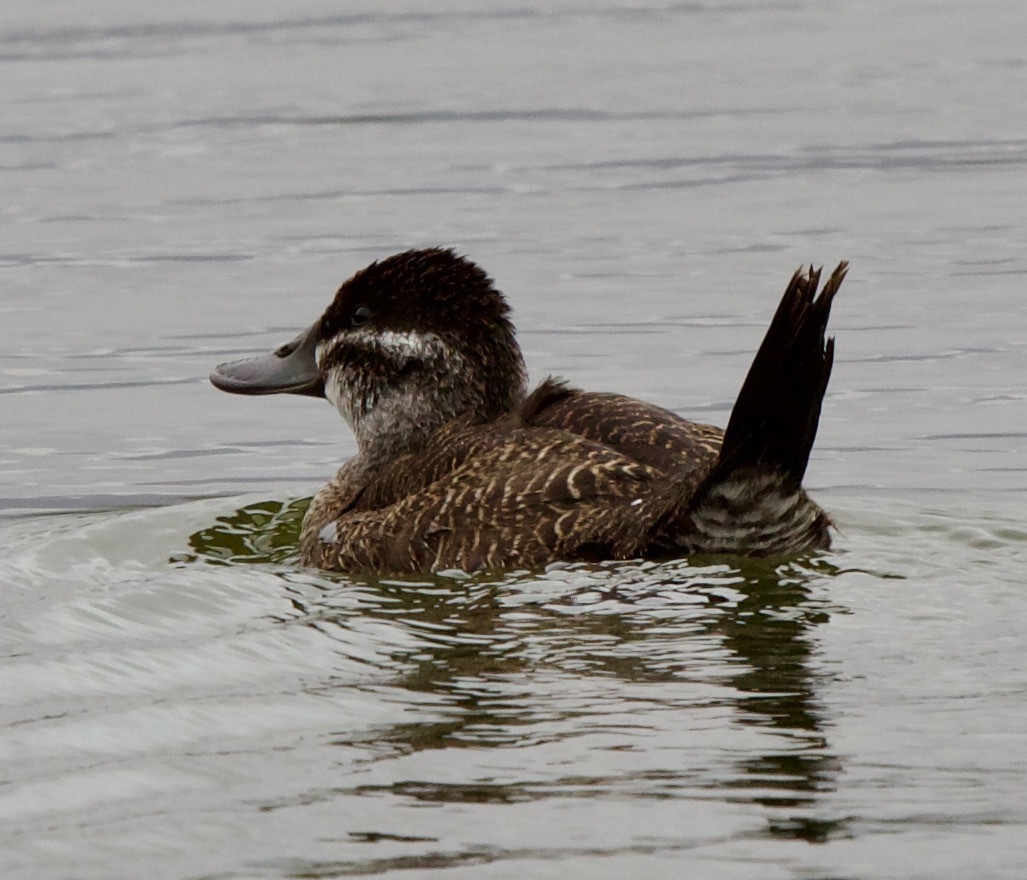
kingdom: Animalia
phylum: Chordata
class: Aves
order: Anseriformes
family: Anatidae
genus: Oxyura
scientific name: Oxyura vittata
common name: Lake duck
